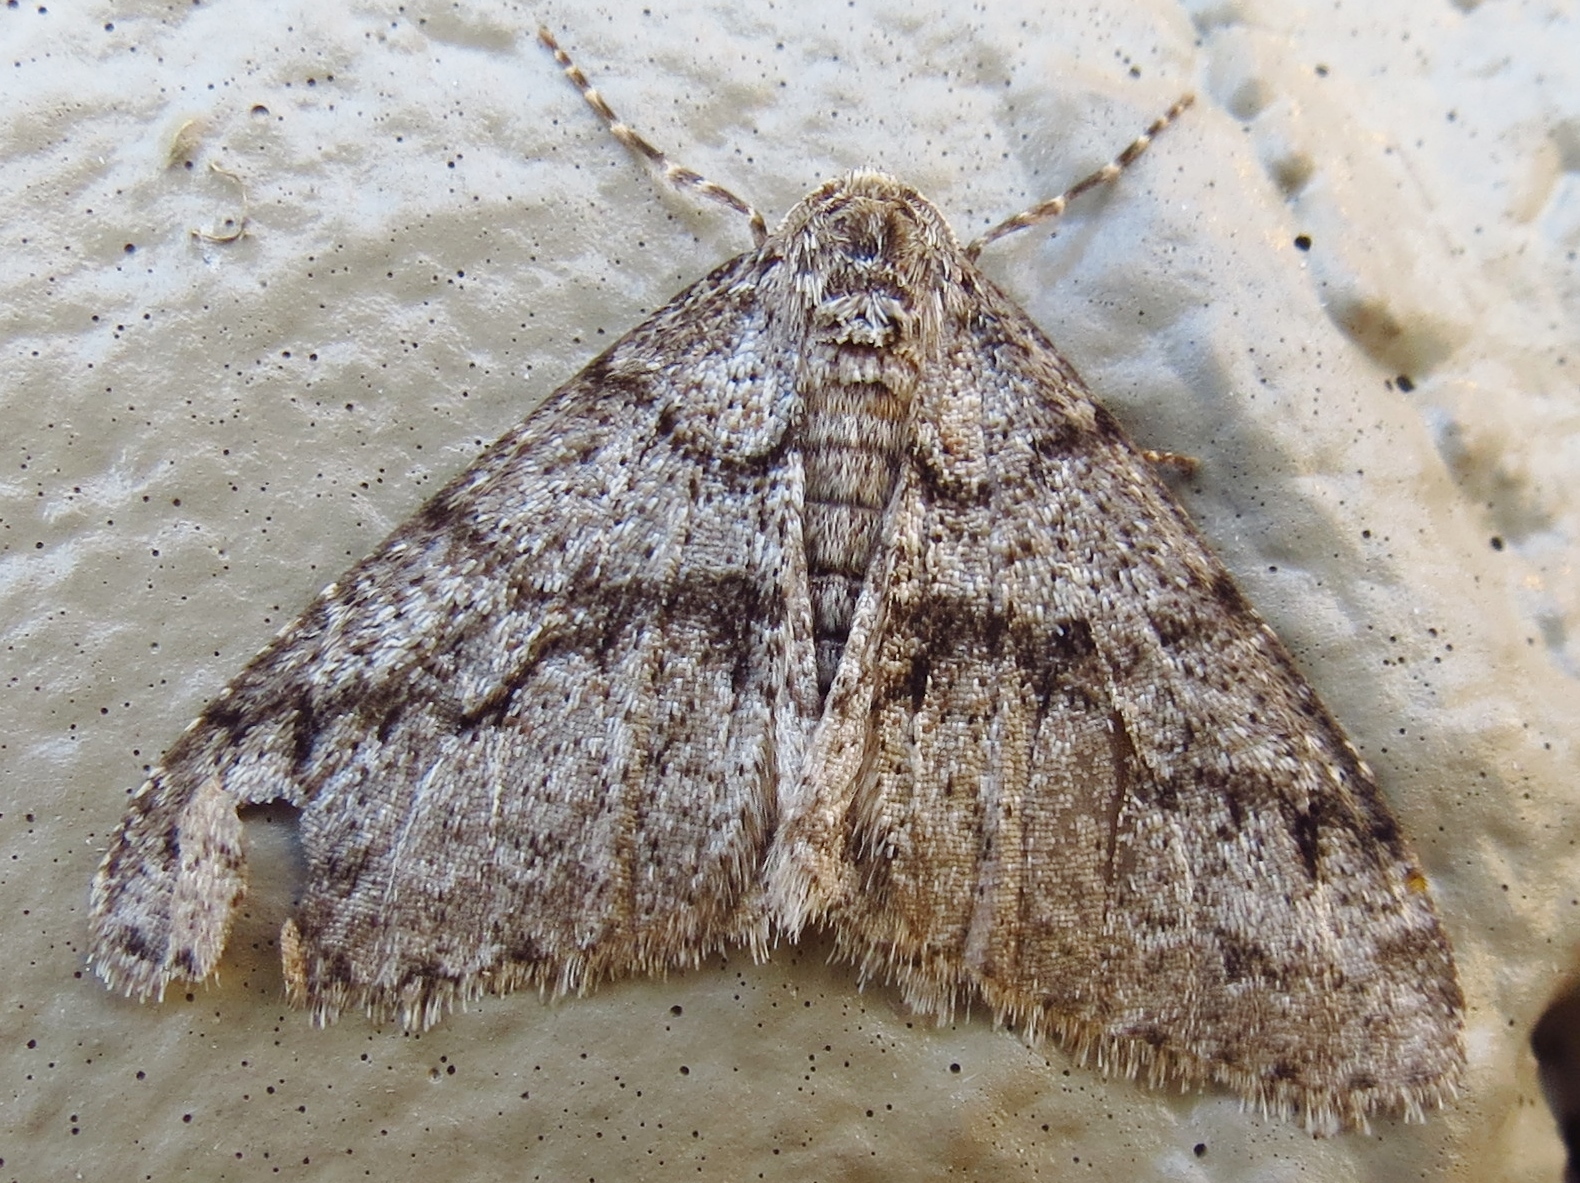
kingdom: Animalia
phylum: Arthropoda
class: Insecta
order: Lepidoptera
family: Geometridae
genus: Phigalia
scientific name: Phigalia denticulata
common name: Toothed phigalia
